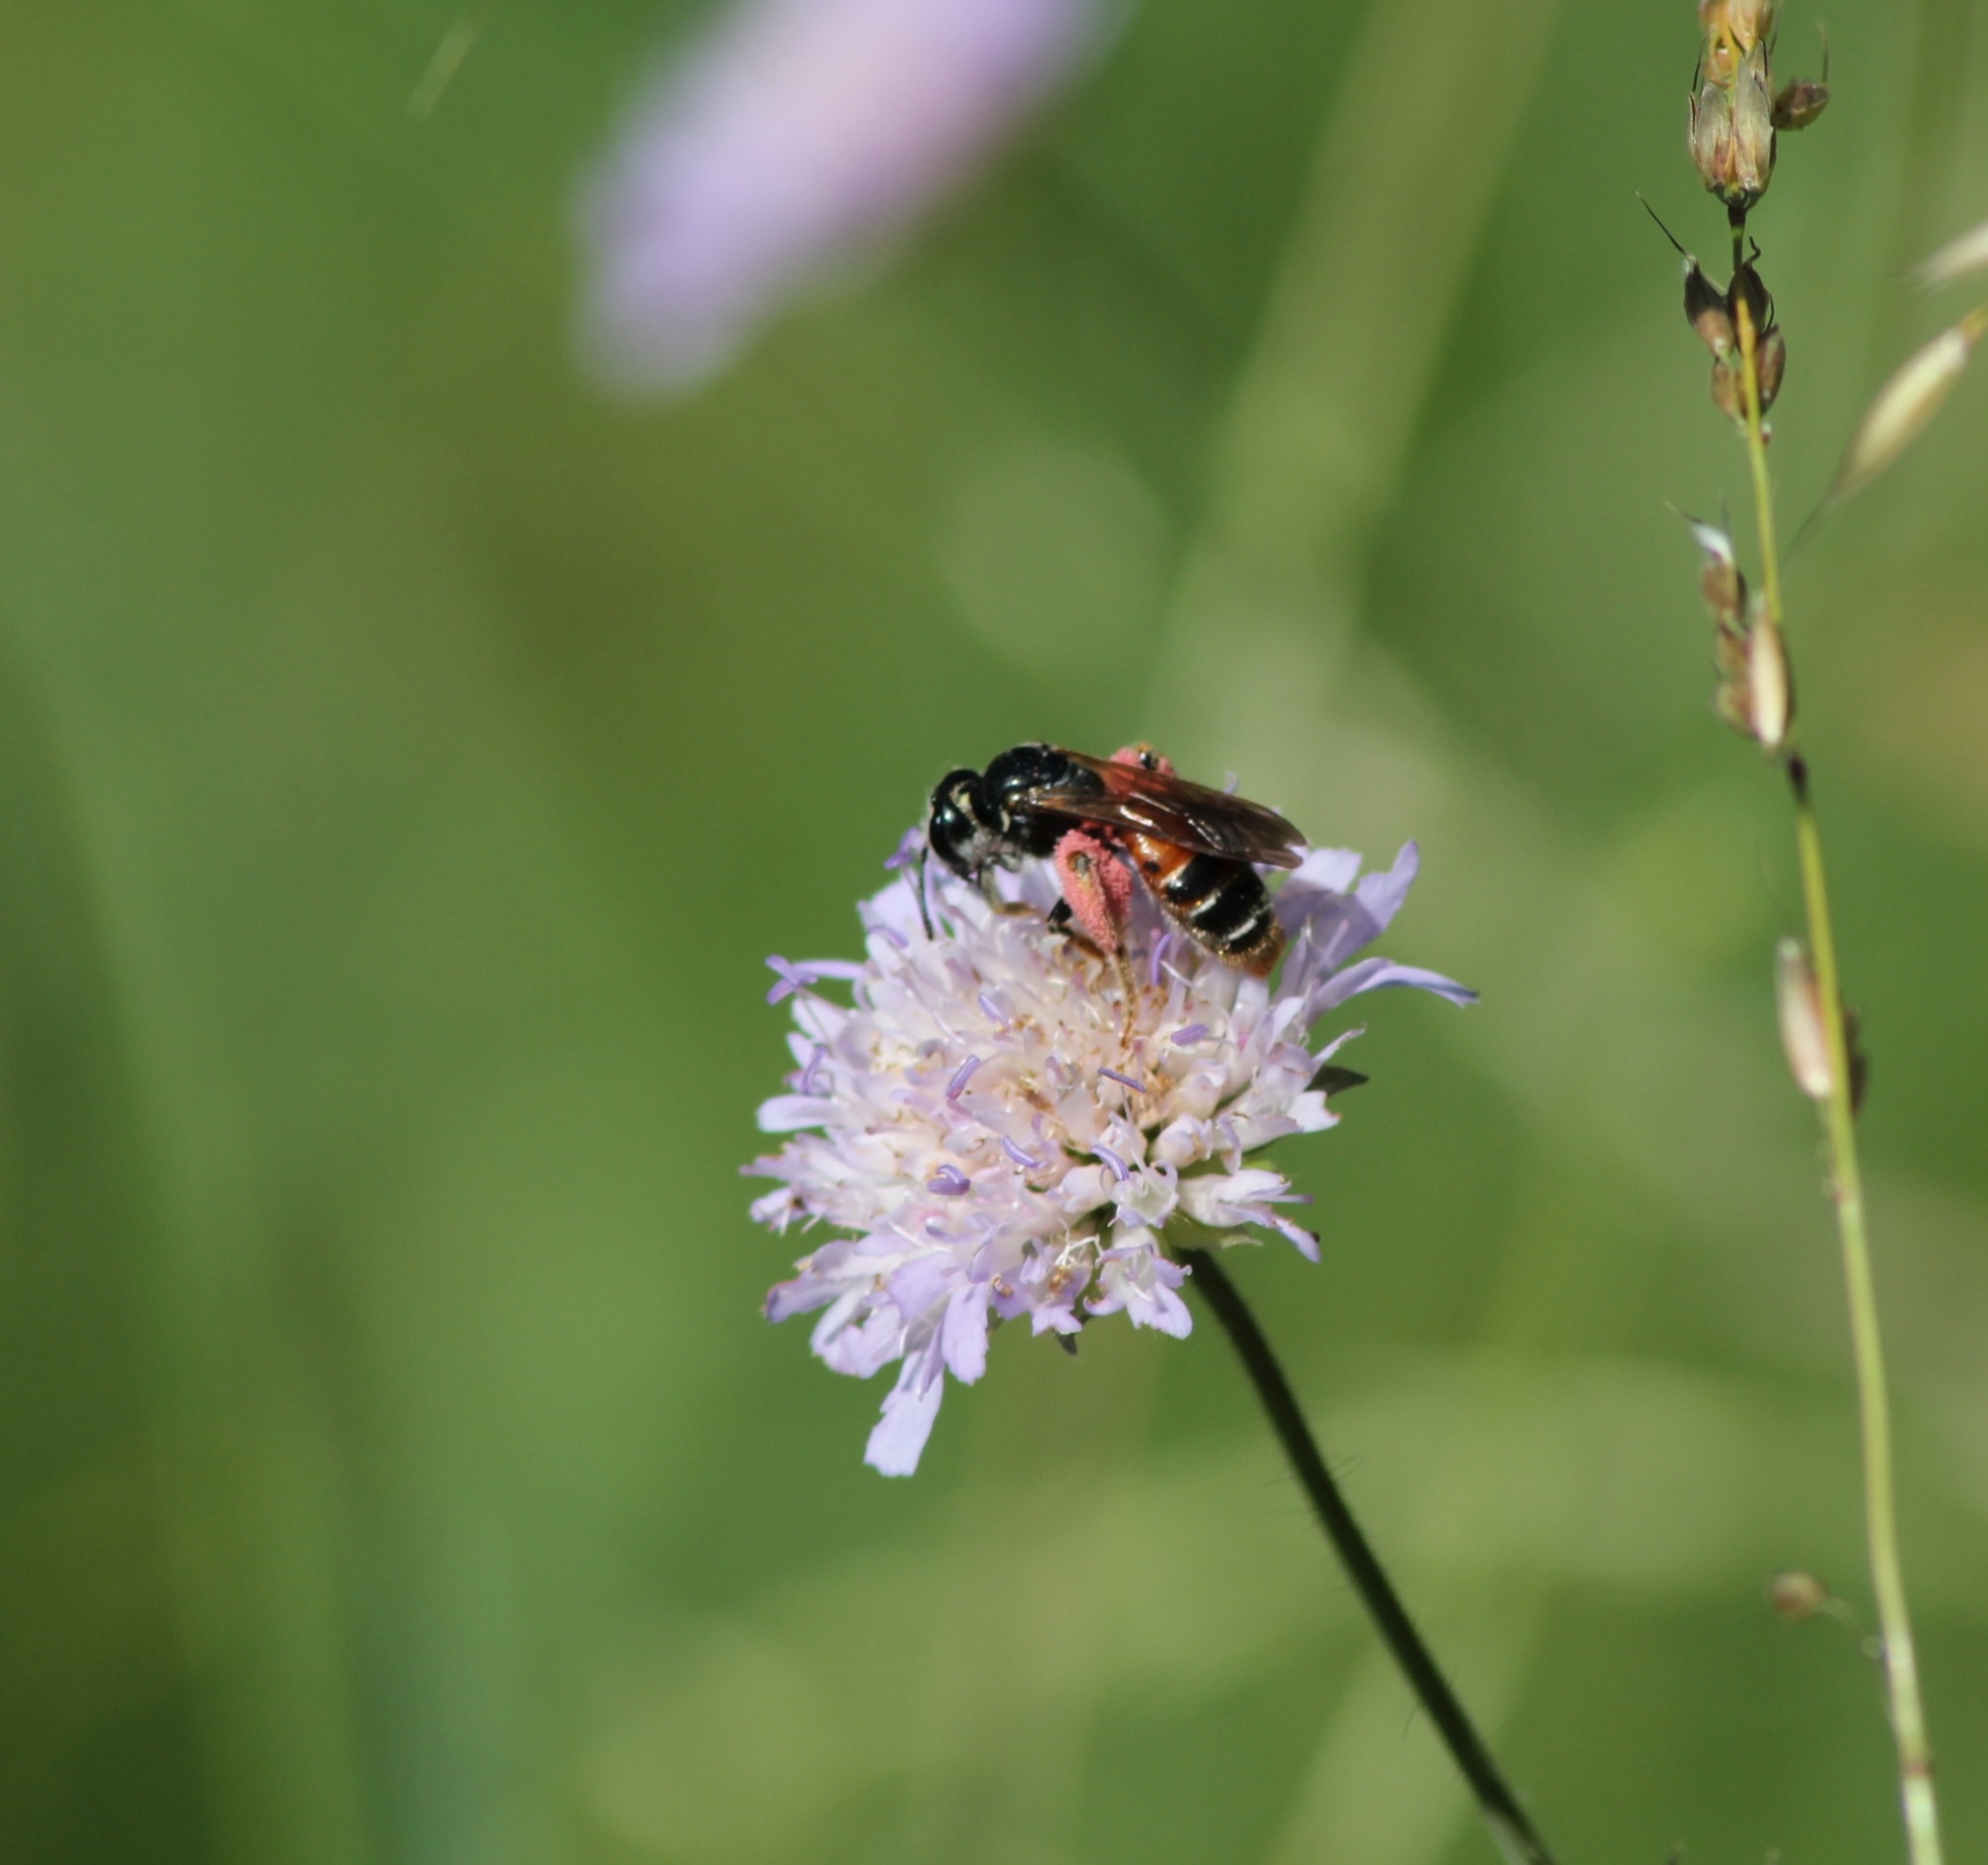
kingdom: Animalia
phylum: Arthropoda
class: Insecta
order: Hymenoptera
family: Andrenidae
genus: Andrena
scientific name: Andrena hattorfiana
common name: Large scabious mining bee
